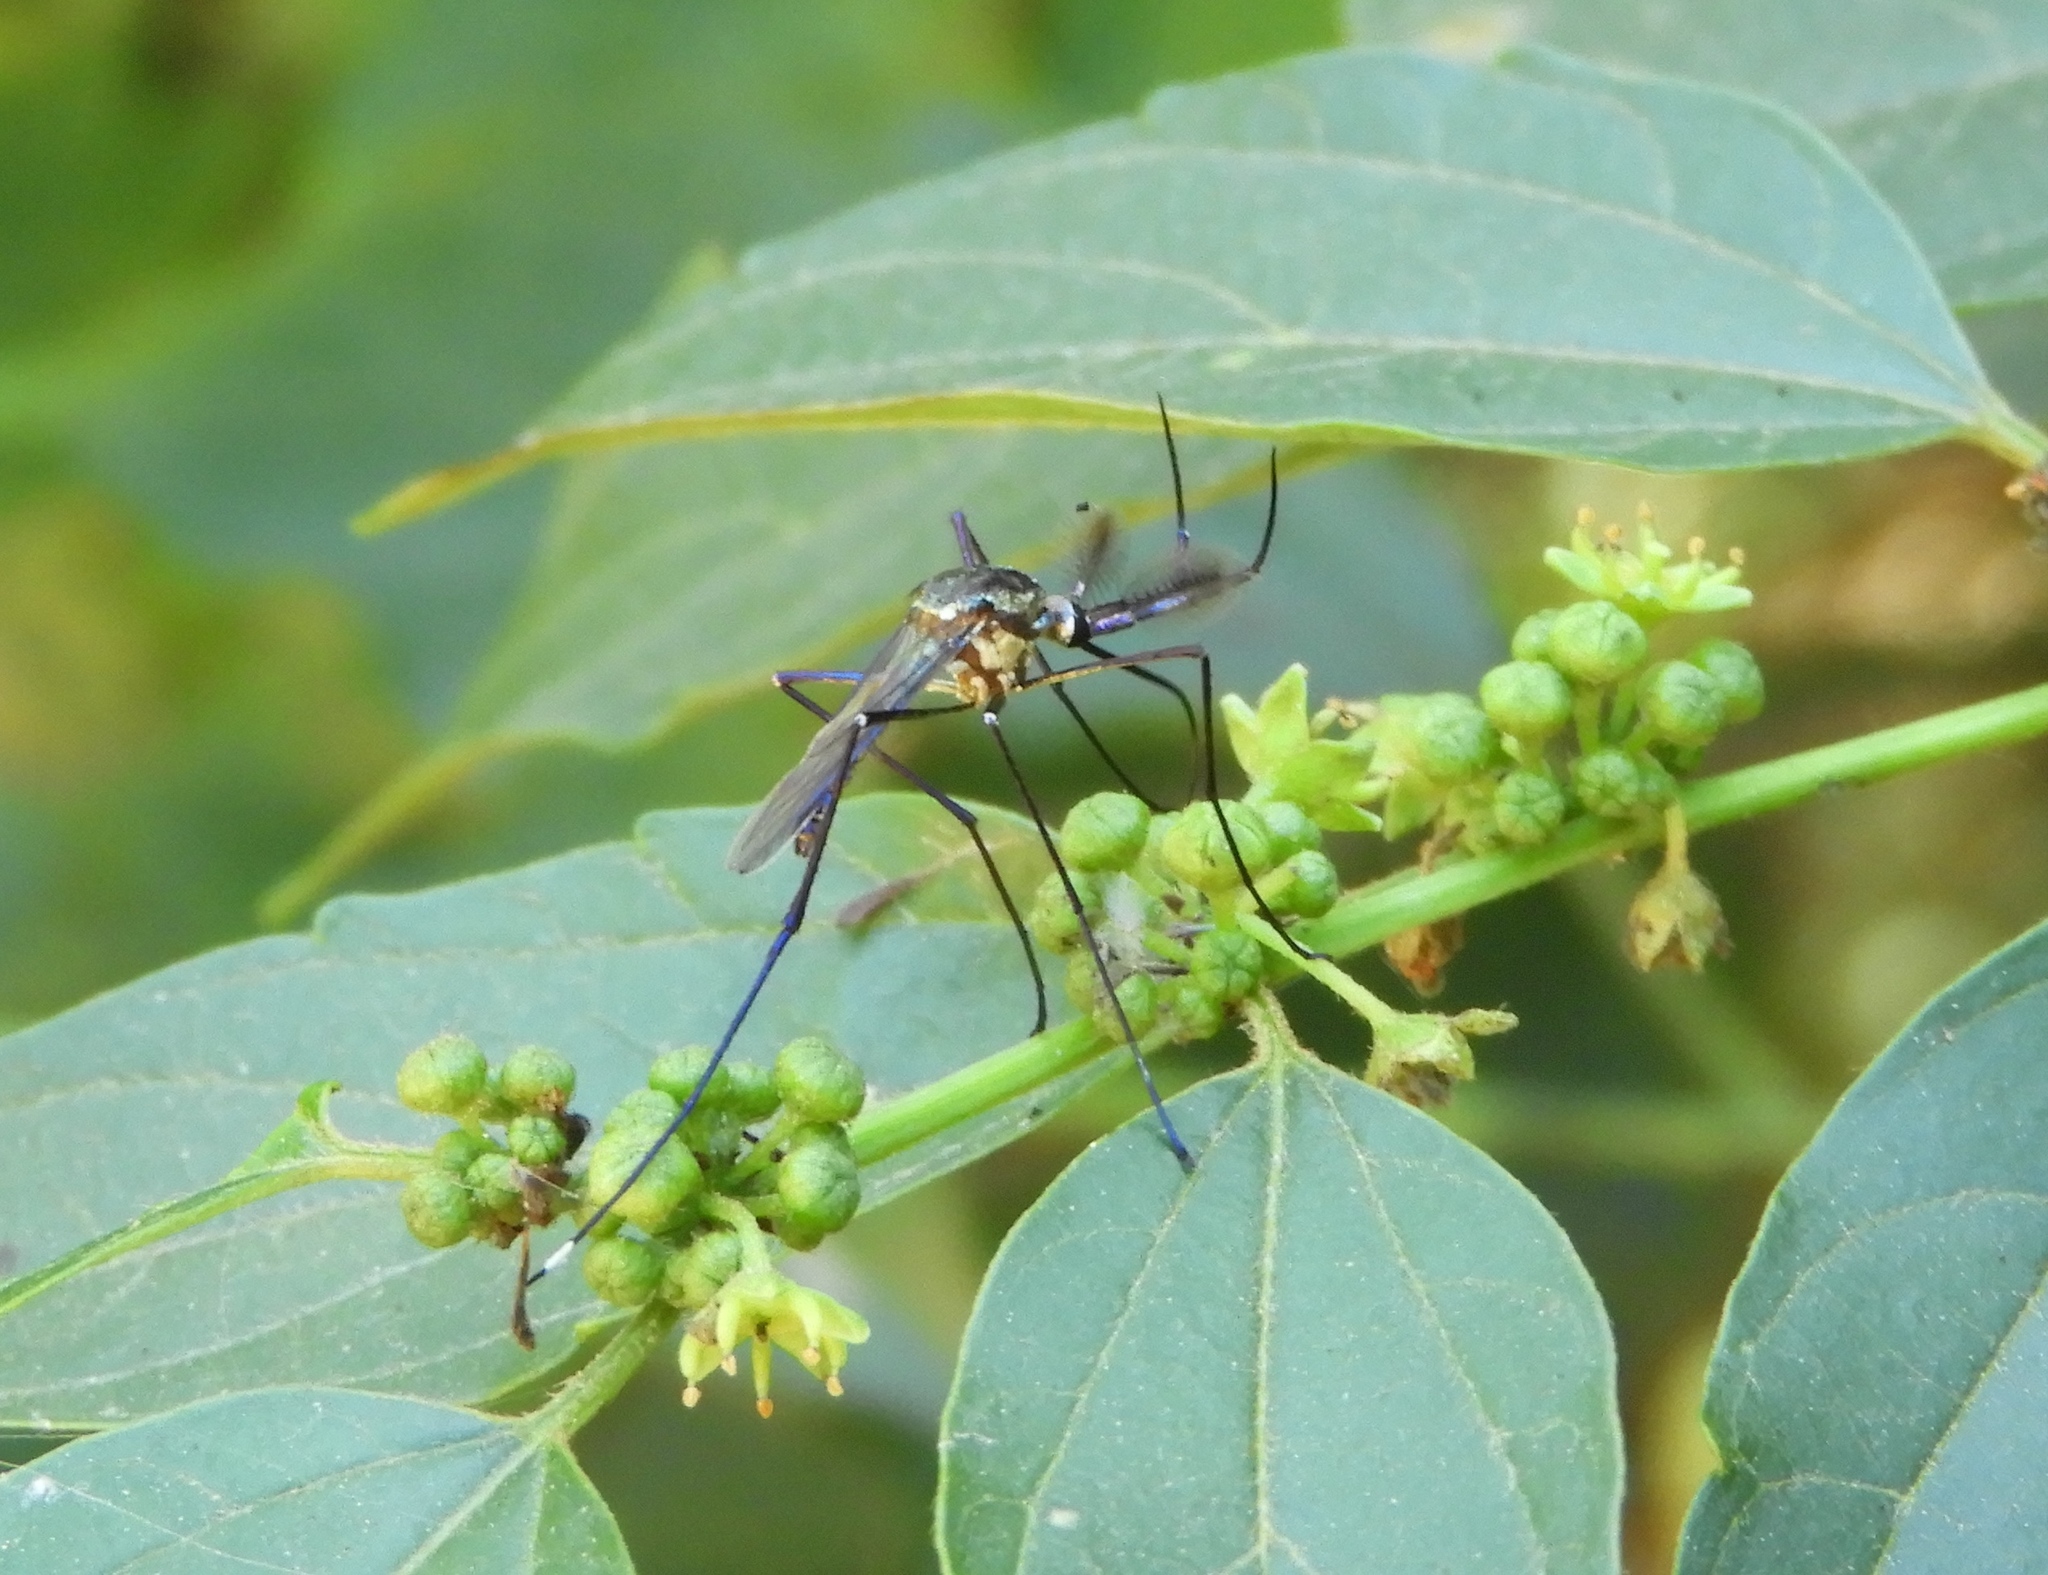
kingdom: Animalia
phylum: Arthropoda
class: Insecta
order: Diptera
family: Culicidae
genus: Lynchiella
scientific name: Lynchiella
